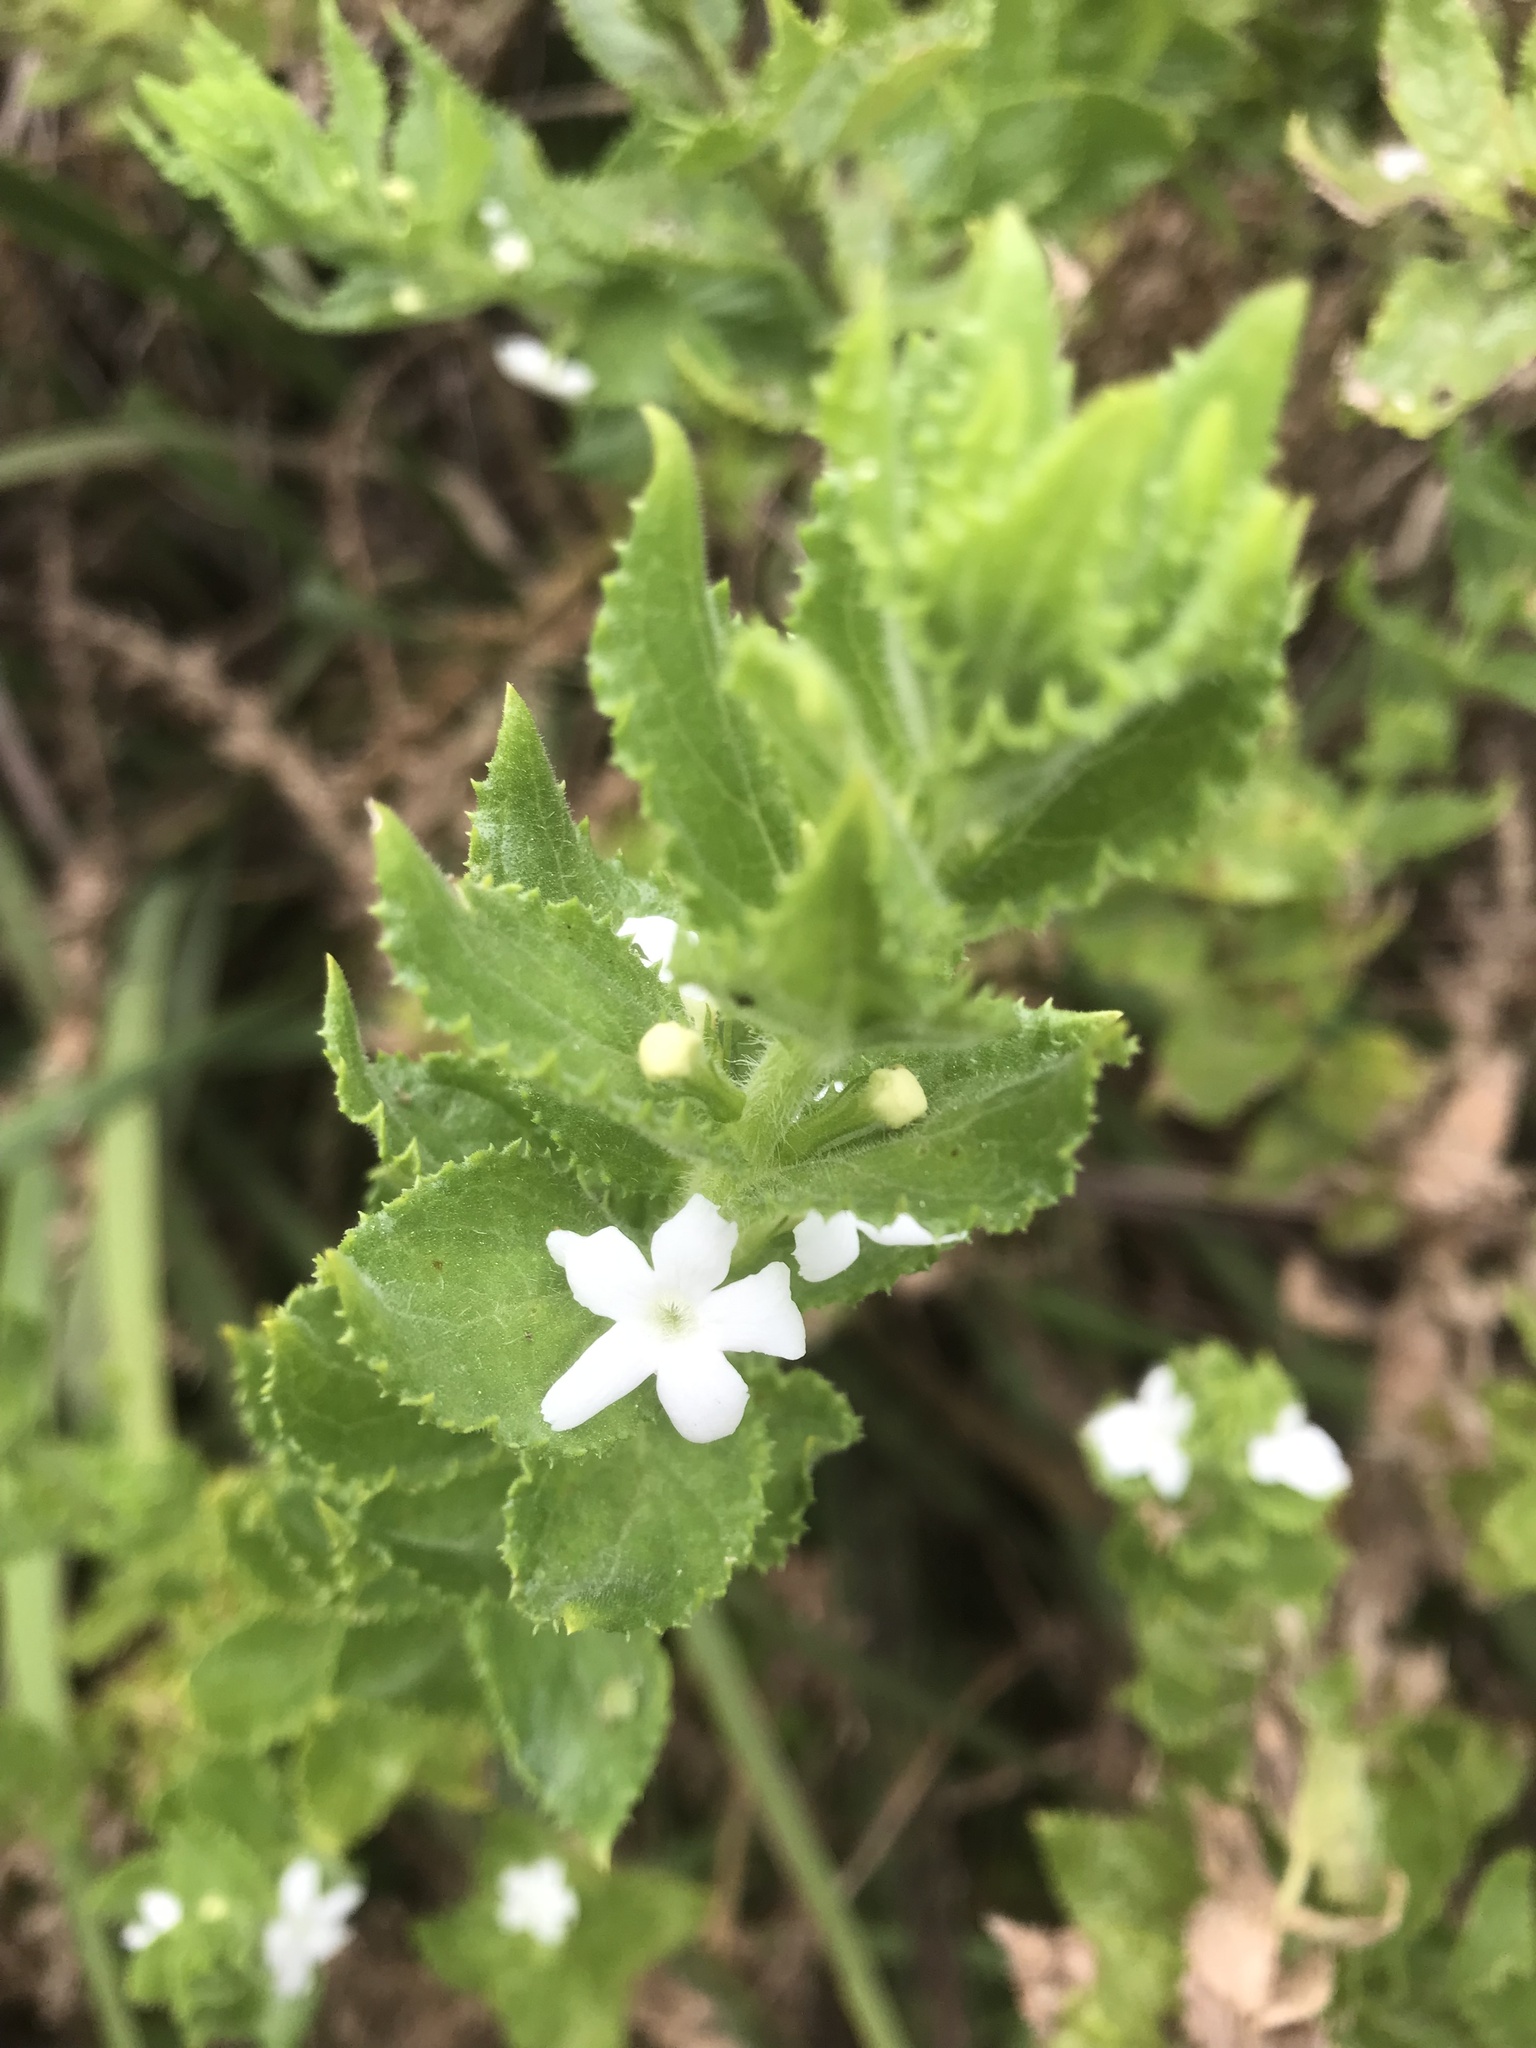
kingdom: Plantae
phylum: Tracheophyta
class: Magnoliopsida
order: Lamiales
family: Scrophulariaceae
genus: Oftia
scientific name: Oftia africana
